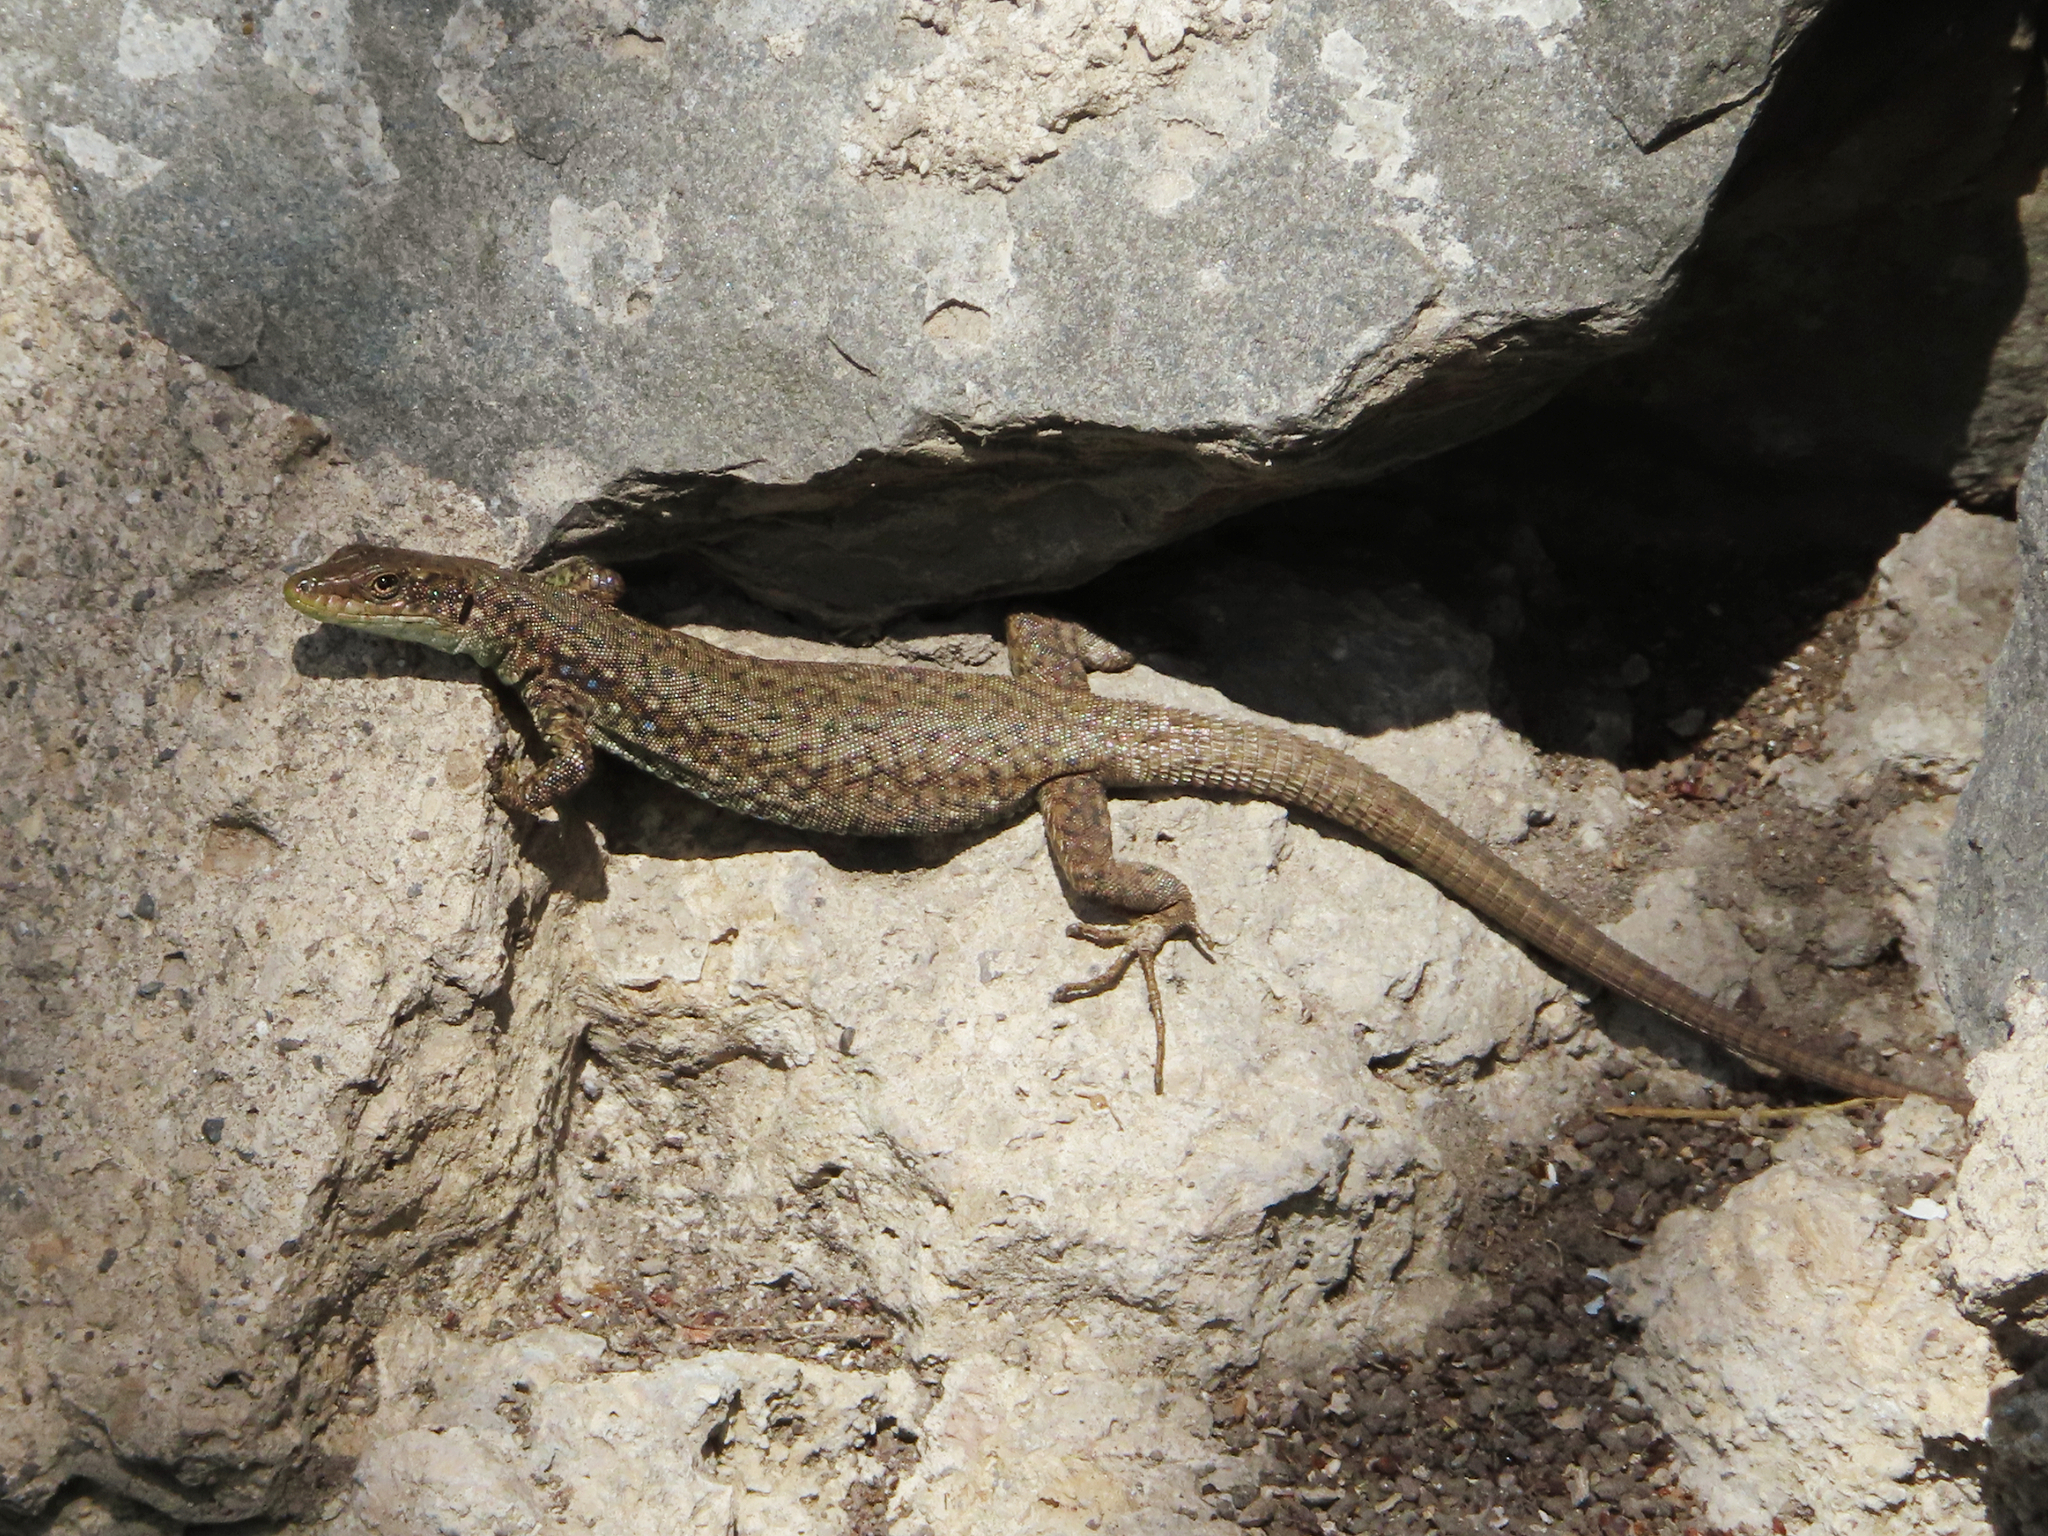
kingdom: Animalia
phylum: Chordata
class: Squamata
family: Lacertidae
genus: Darevskia
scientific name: Darevskia
